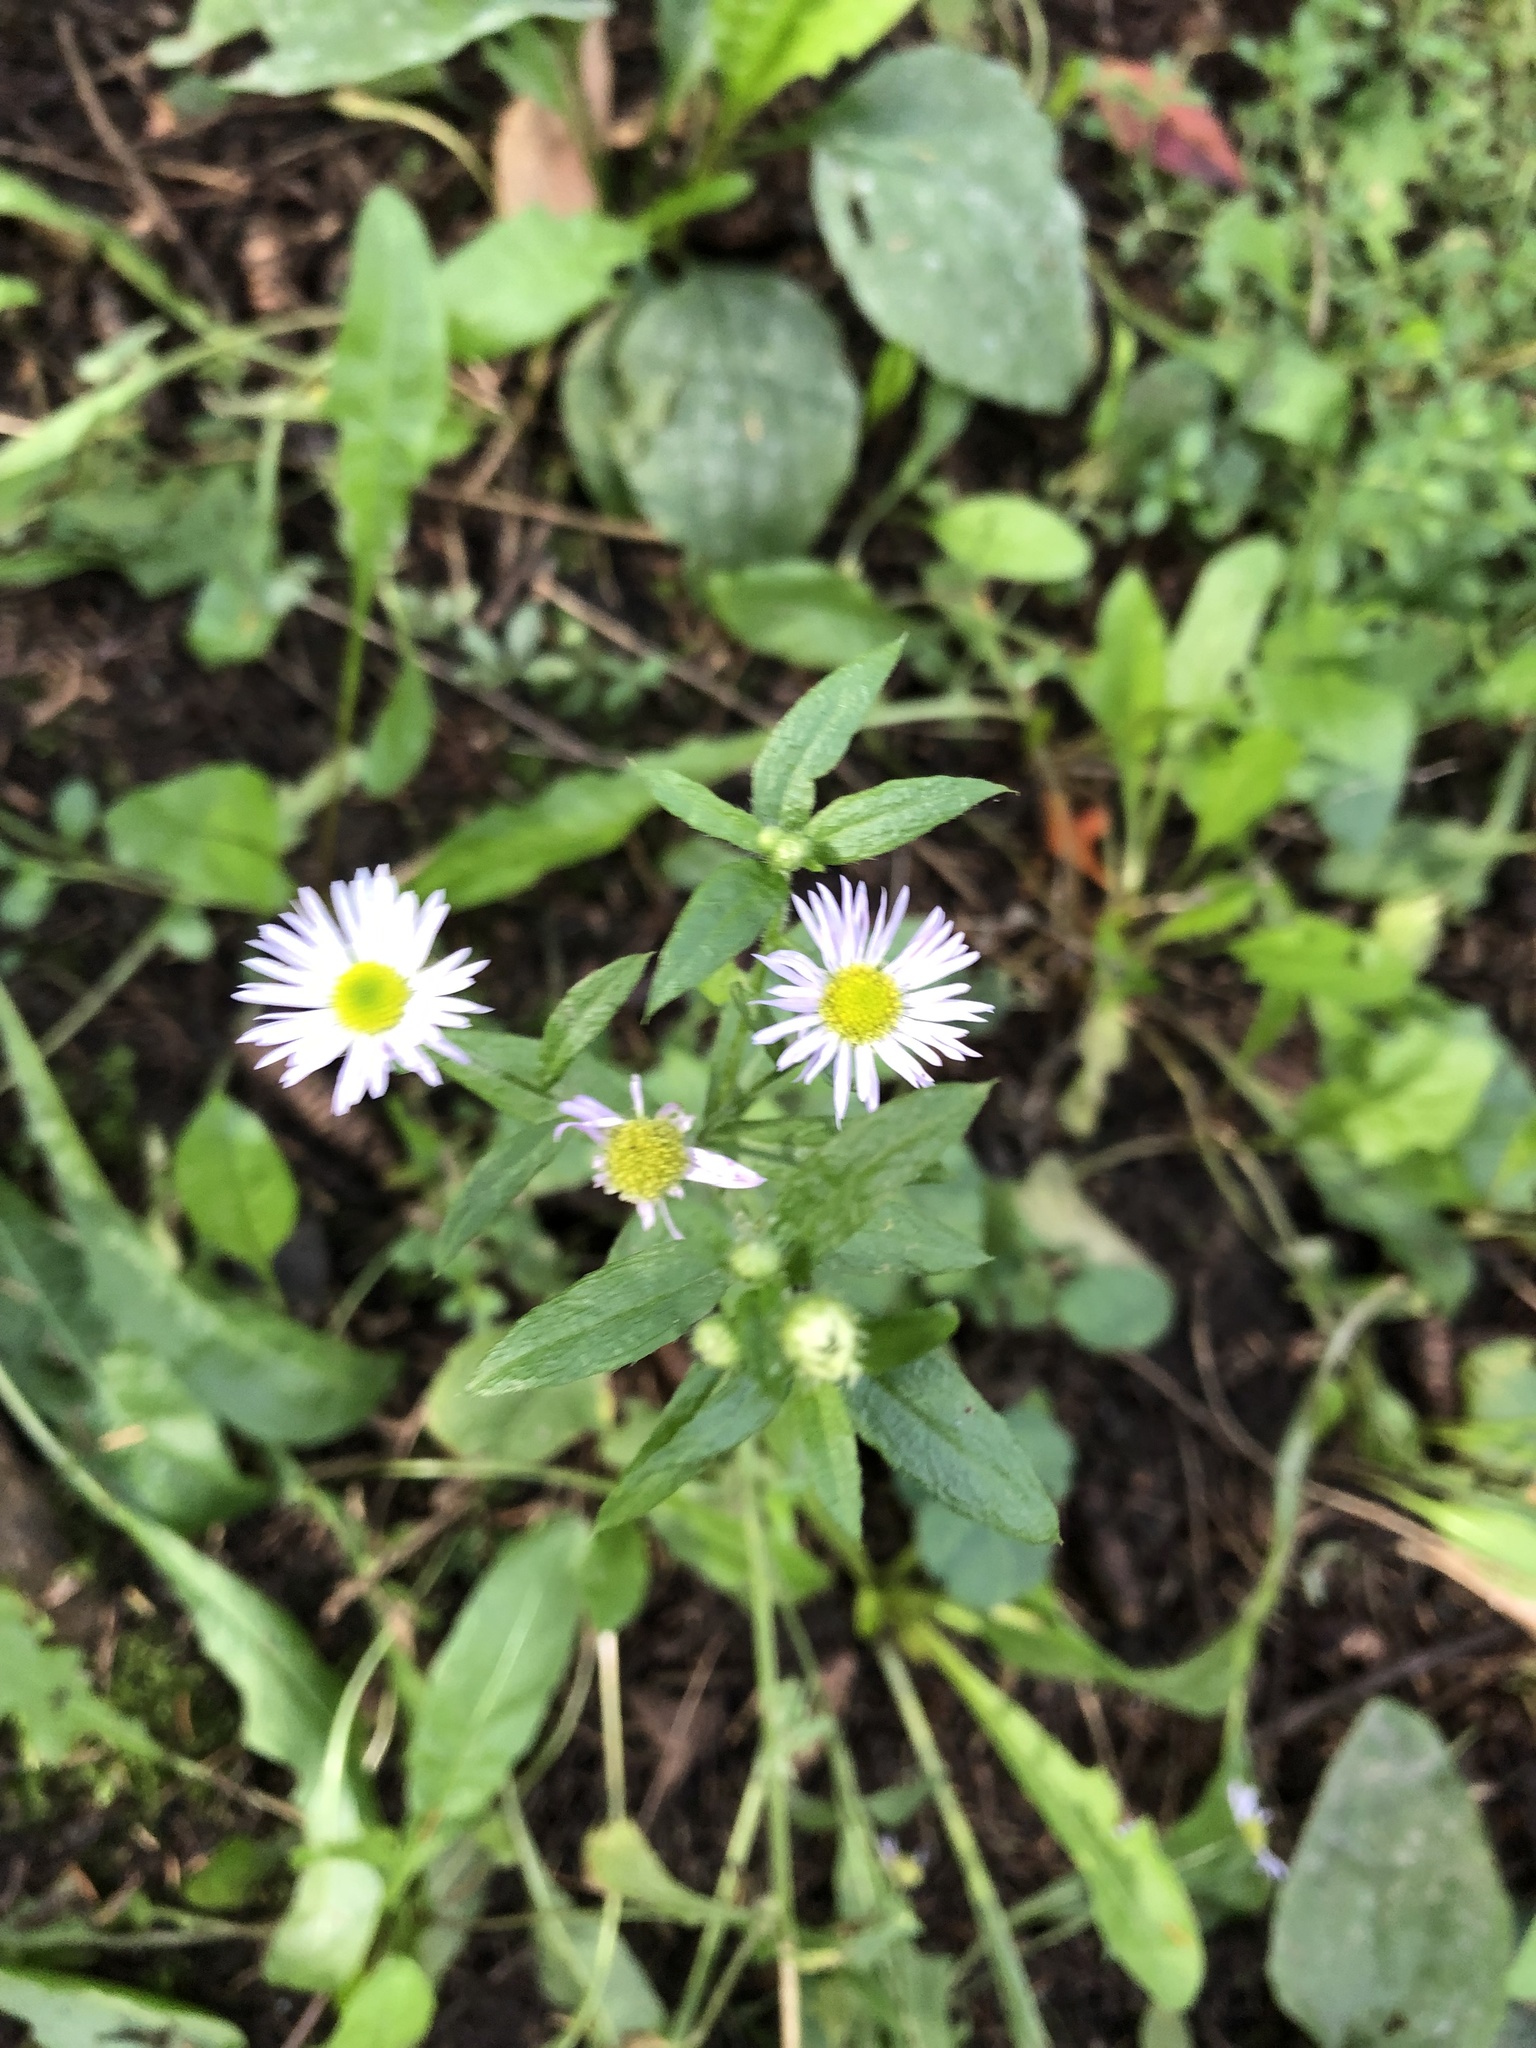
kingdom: Plantae
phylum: Tracheophyta
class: Magnoliopsida
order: Asterales
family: Asteraceae
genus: Erigeron
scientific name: Erigeron annuus
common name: Tall fleabane
